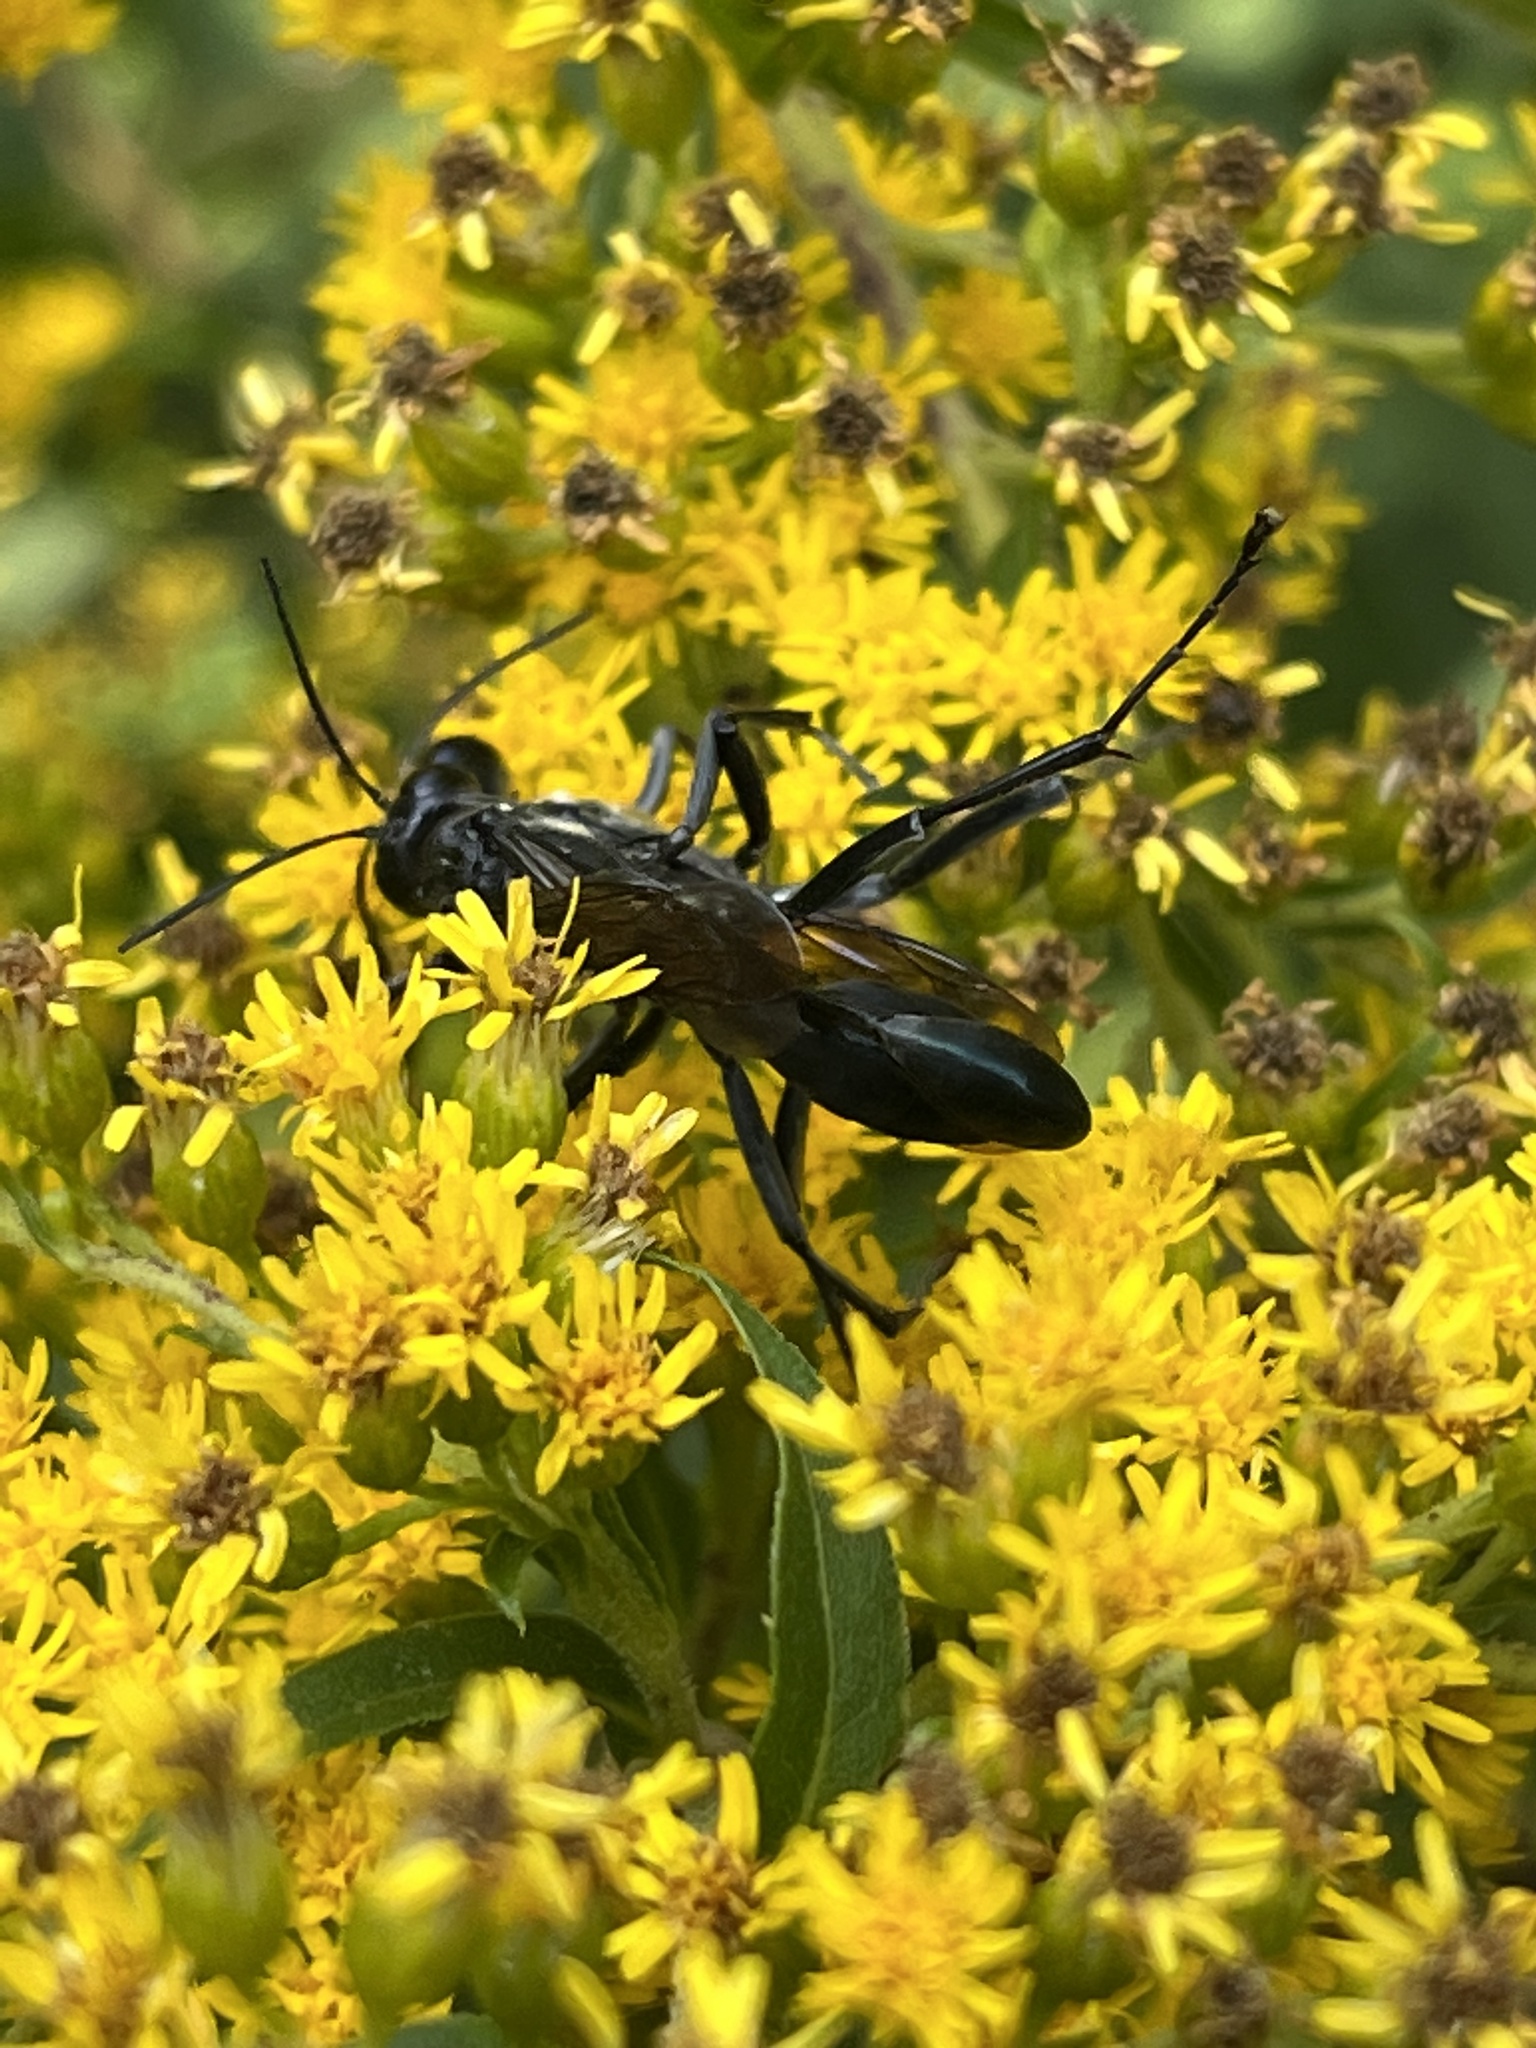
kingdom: Animalia
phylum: Arthropoda
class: Insecta
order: Hymenoptera
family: Sphecidae
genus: Eremnophila
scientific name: Eremnophila aureonotata
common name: Gold-marked thread-waisted wasp
